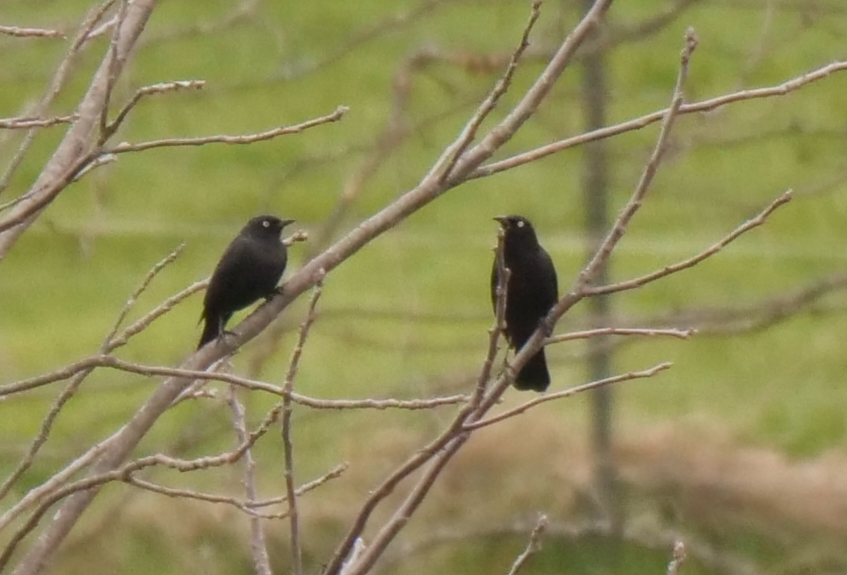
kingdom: Animalia
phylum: Chordata
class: Aves
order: Passeriformes
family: Icteridae
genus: Euphagus
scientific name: Euphagus carolinus
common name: Rusty blackbird
